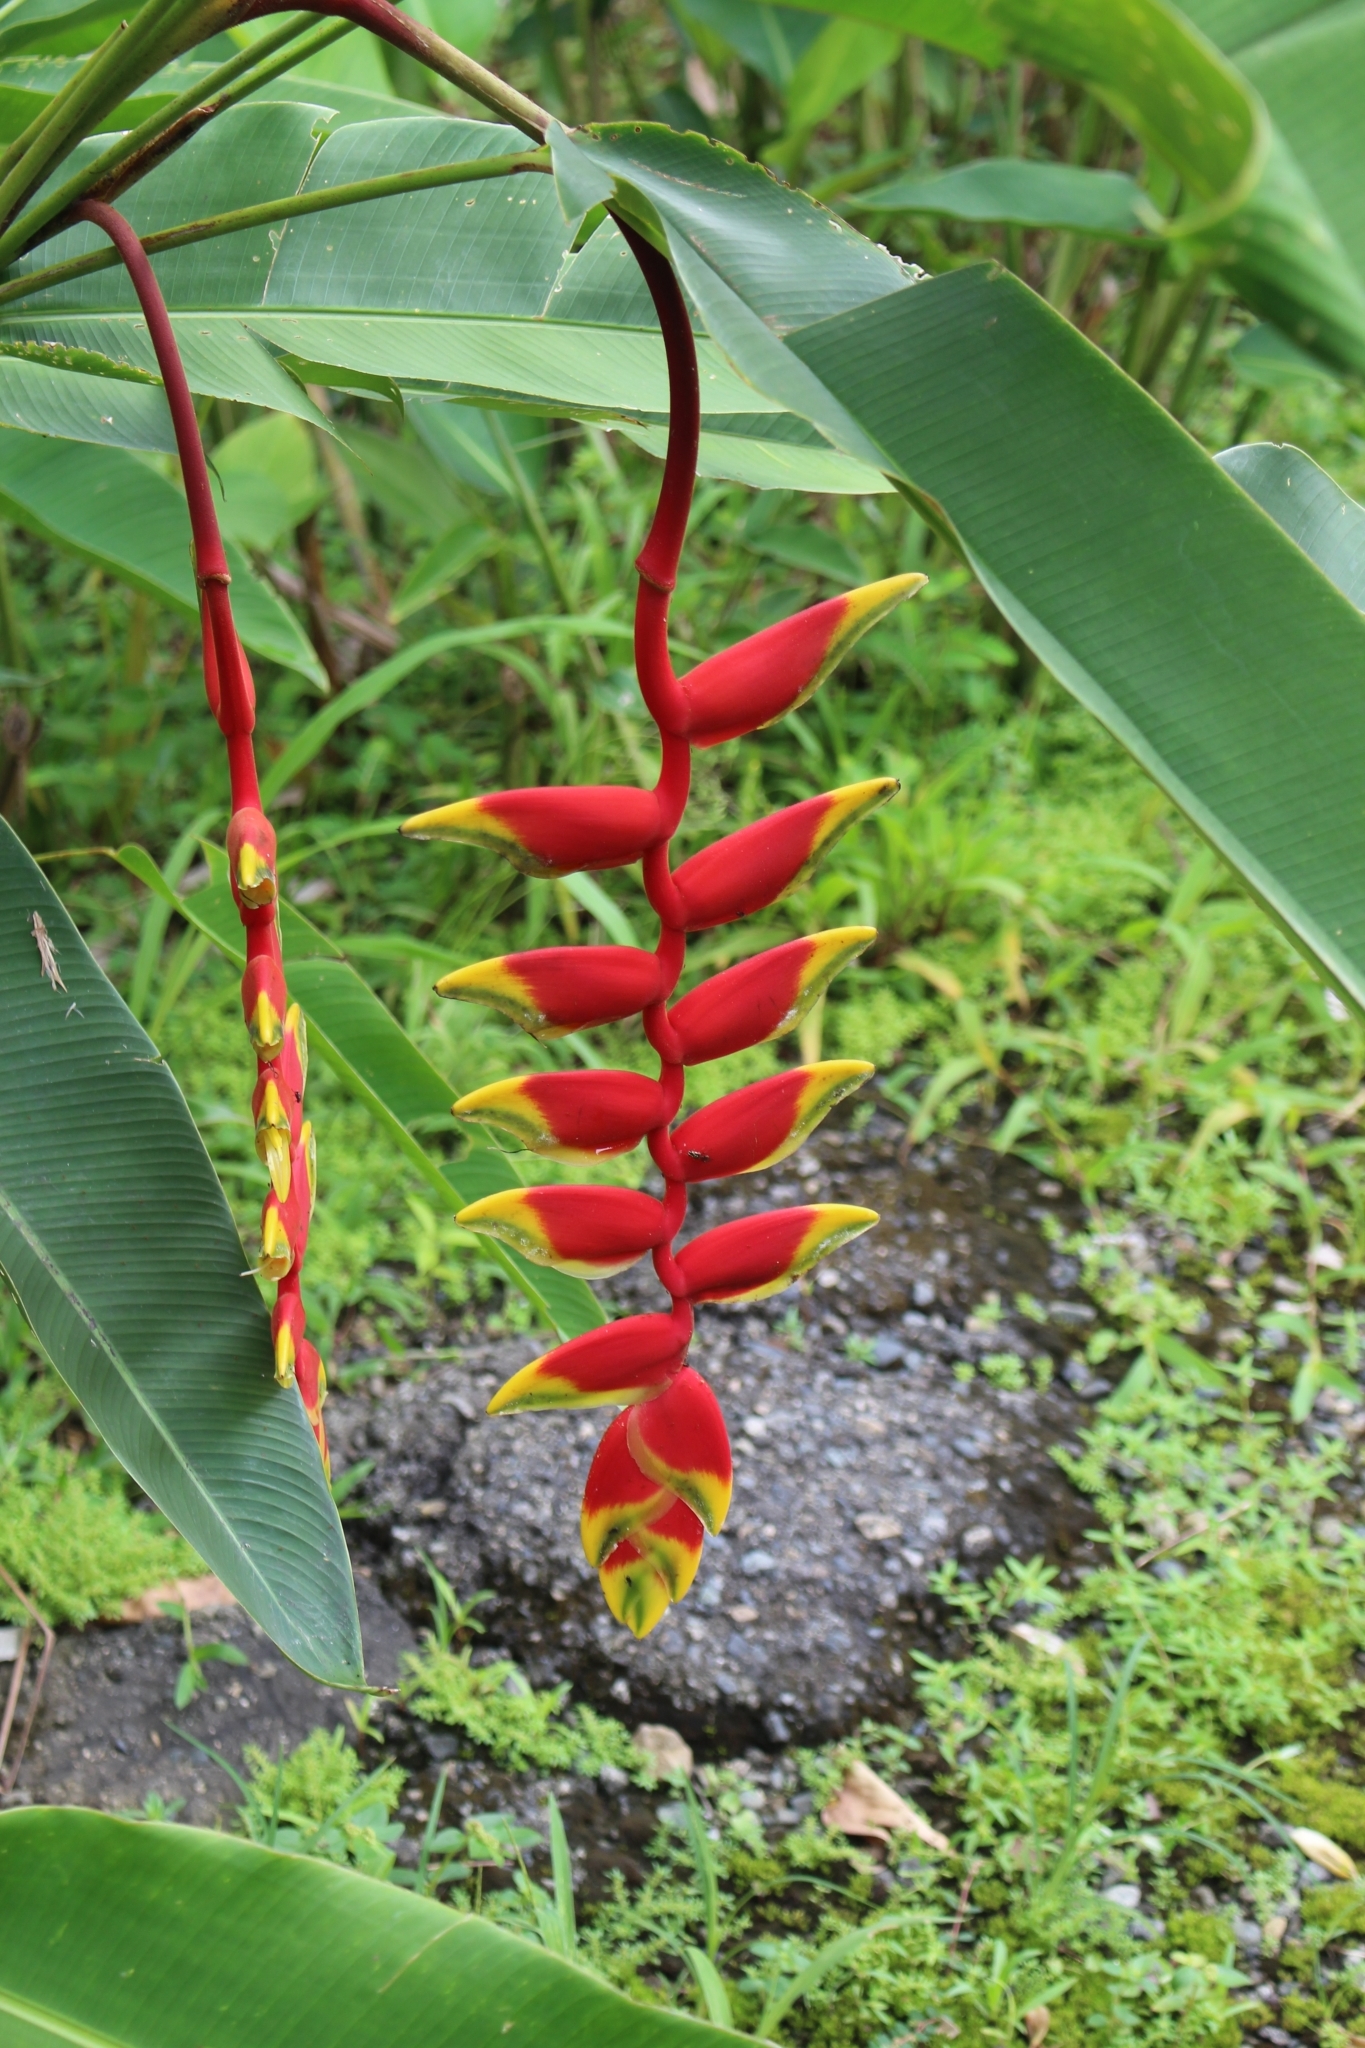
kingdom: Plantae
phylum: Tracheophyta
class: Liliopsida
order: Zingiberales
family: Heliconiaceae
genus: Heliconia
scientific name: Heliconia rostrata
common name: False bird of paradise
